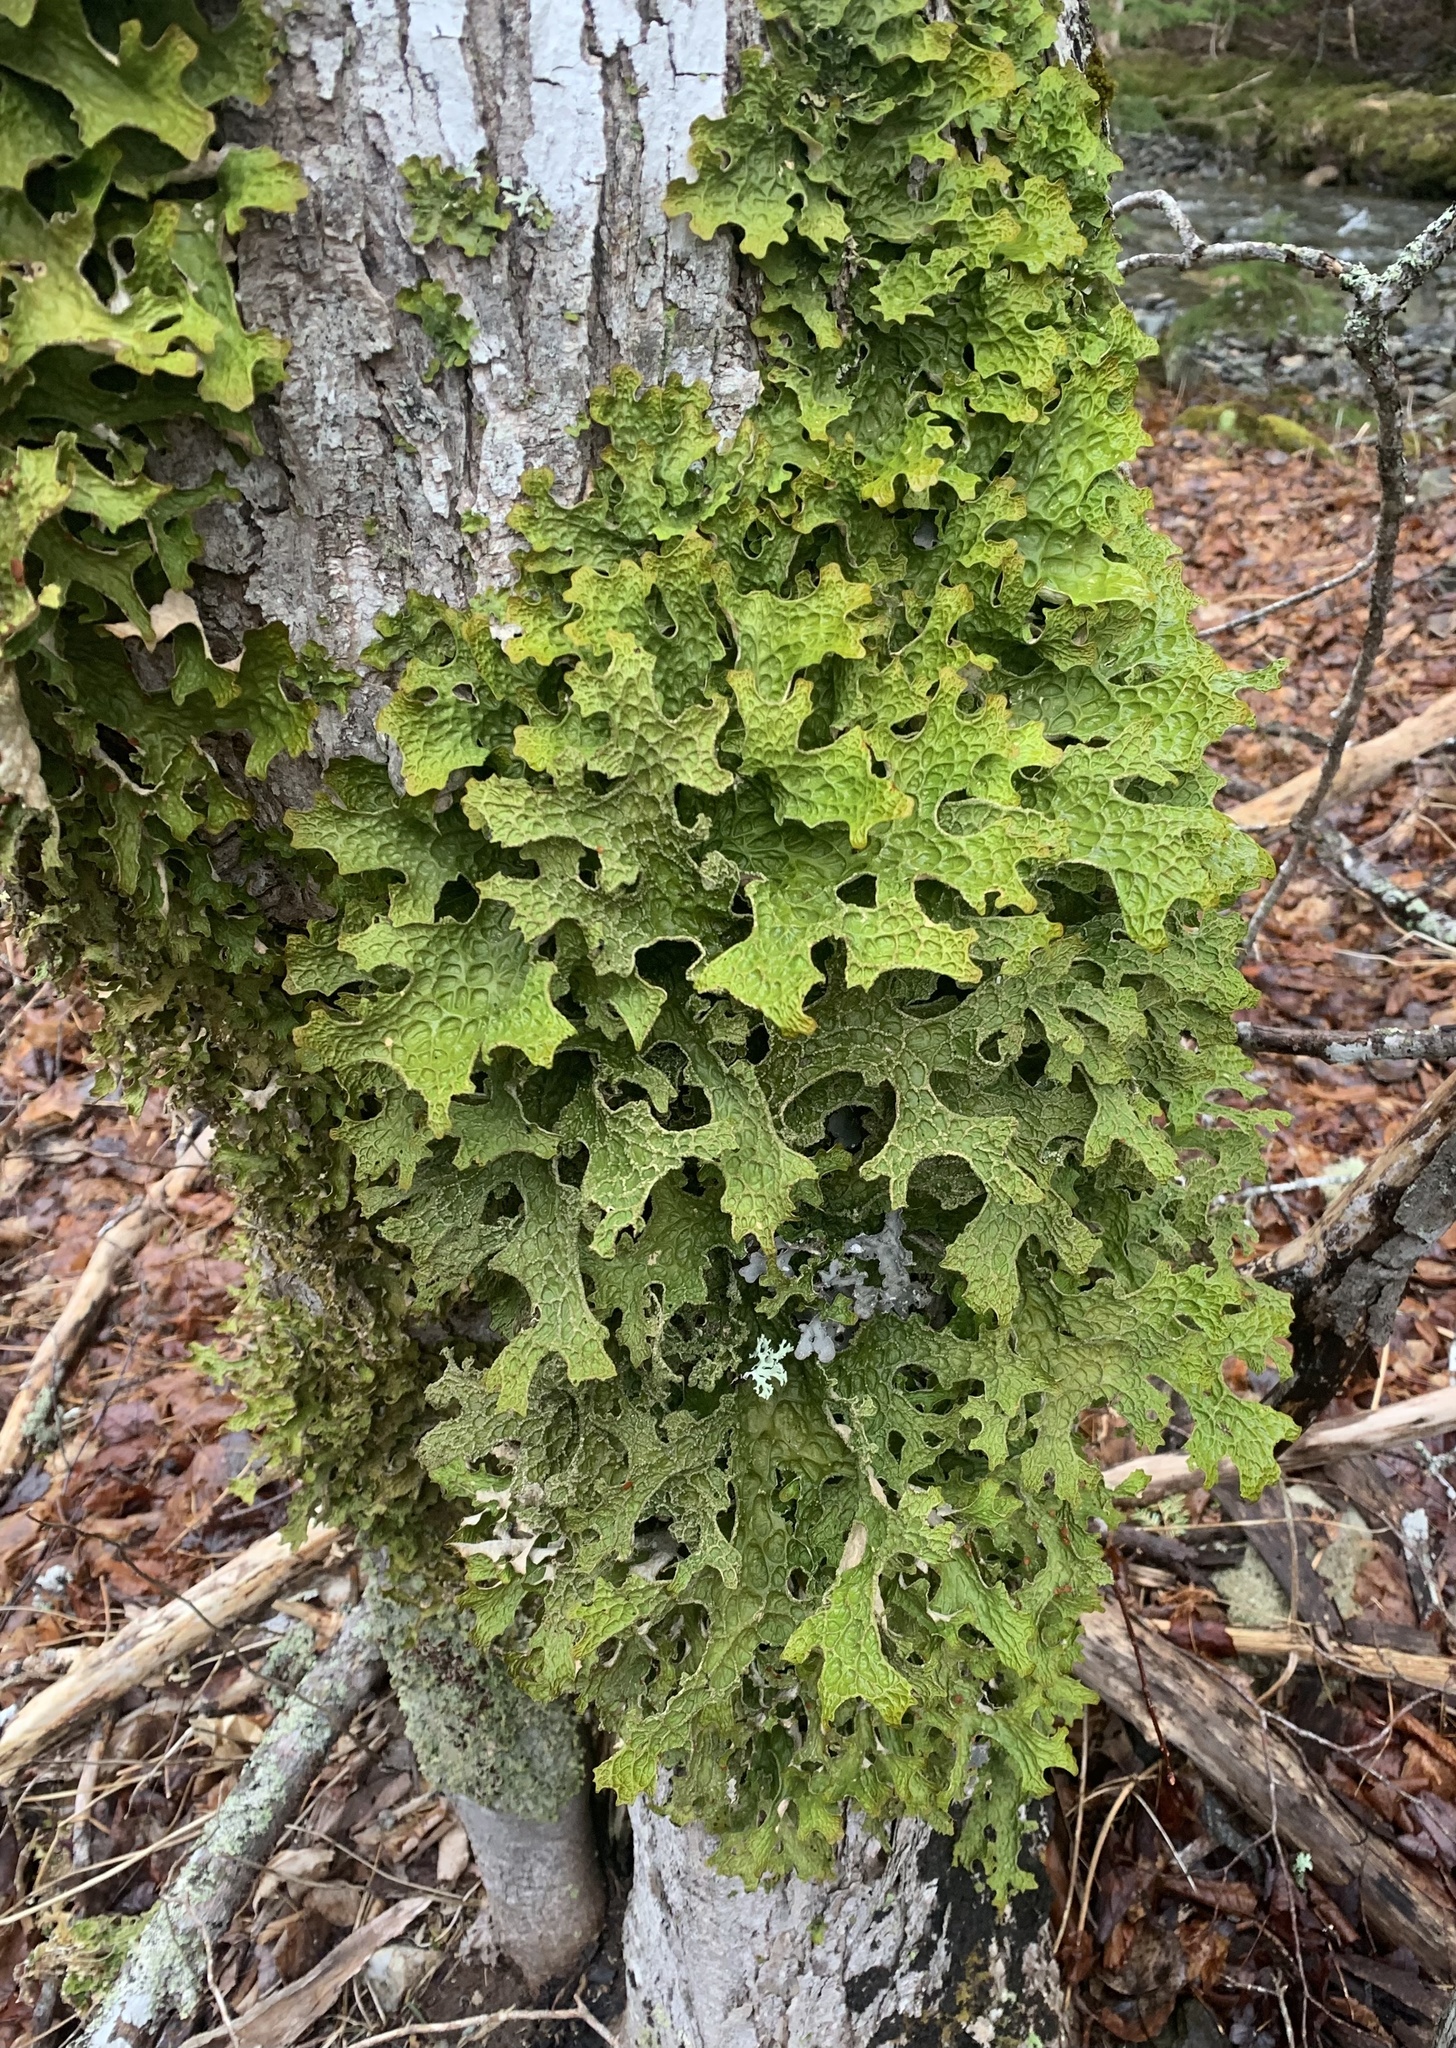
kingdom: Fungi
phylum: Ascomycota
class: Lecanoromycetes
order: Peltigerales
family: Lobariaceae
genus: Lobaria
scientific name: Lobaria pulmonaria
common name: Lungwort
